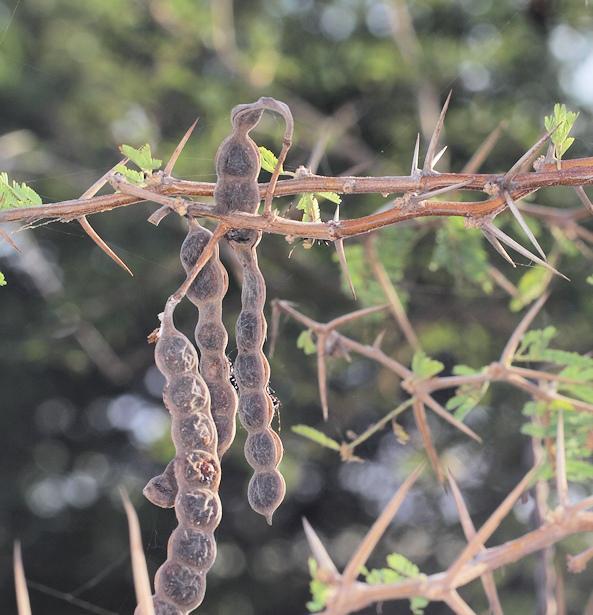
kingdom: Plantae
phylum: Tracheophyta
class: Magnoliopsida
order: Fabales
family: Fabaceae
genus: Vachellia
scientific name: Vachellia nilotica
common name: Arabic gumtree
